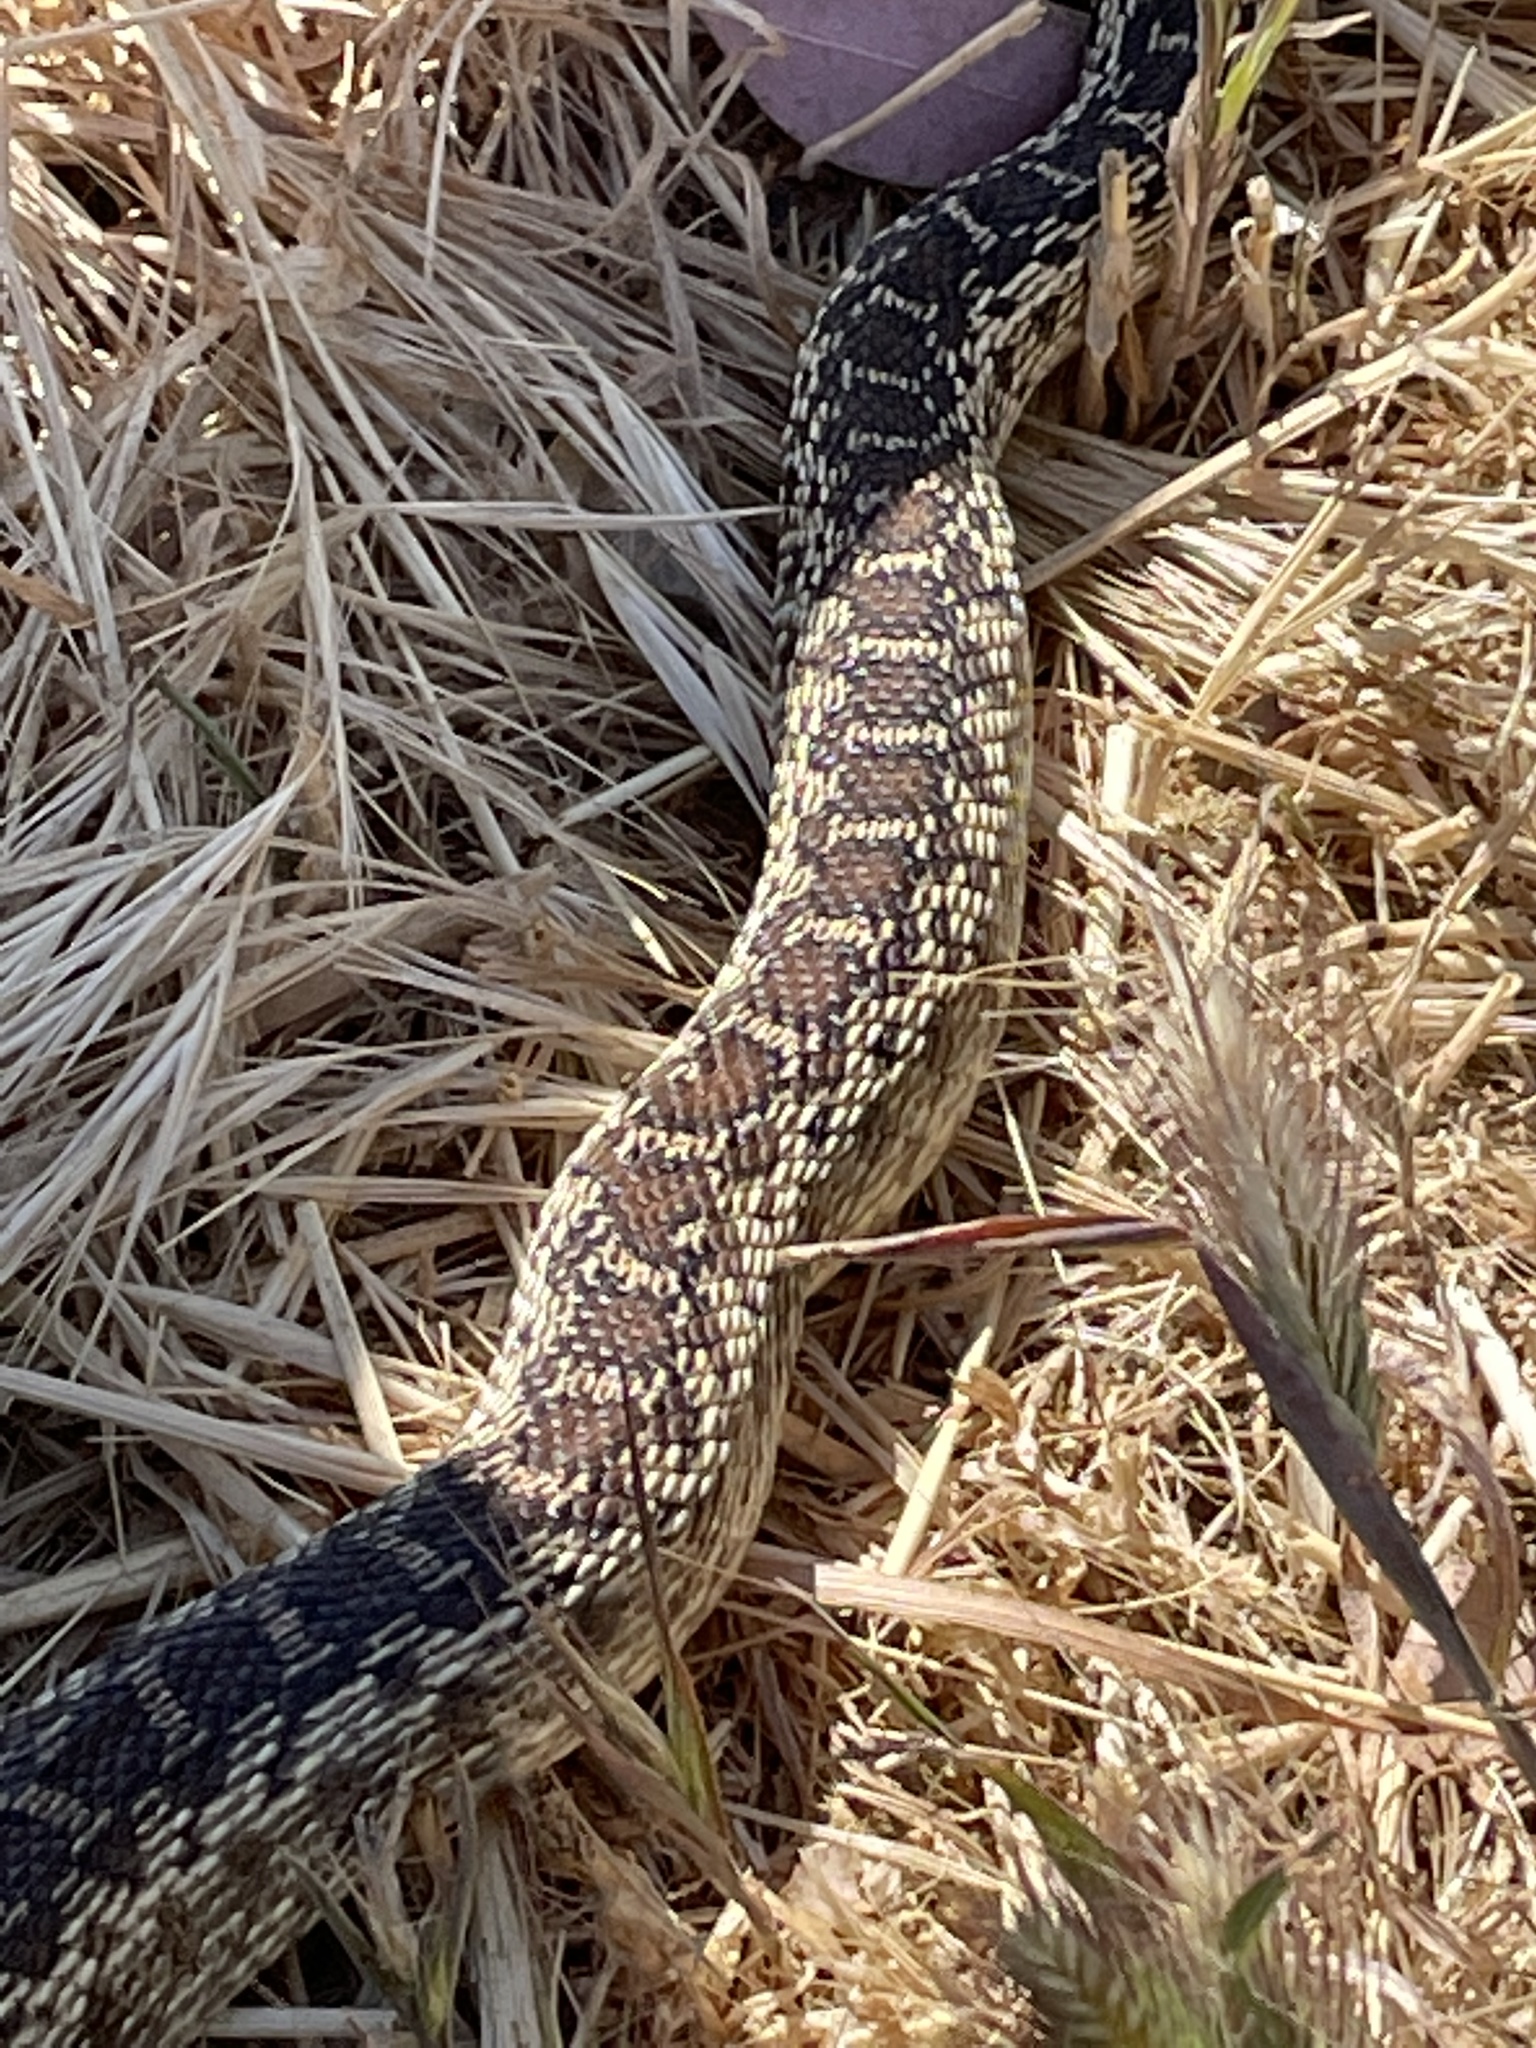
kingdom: Animalia
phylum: Chordata
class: Squamata
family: Colubridae
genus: Pituophis
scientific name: Pituophis catenifer
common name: Gopher snake
